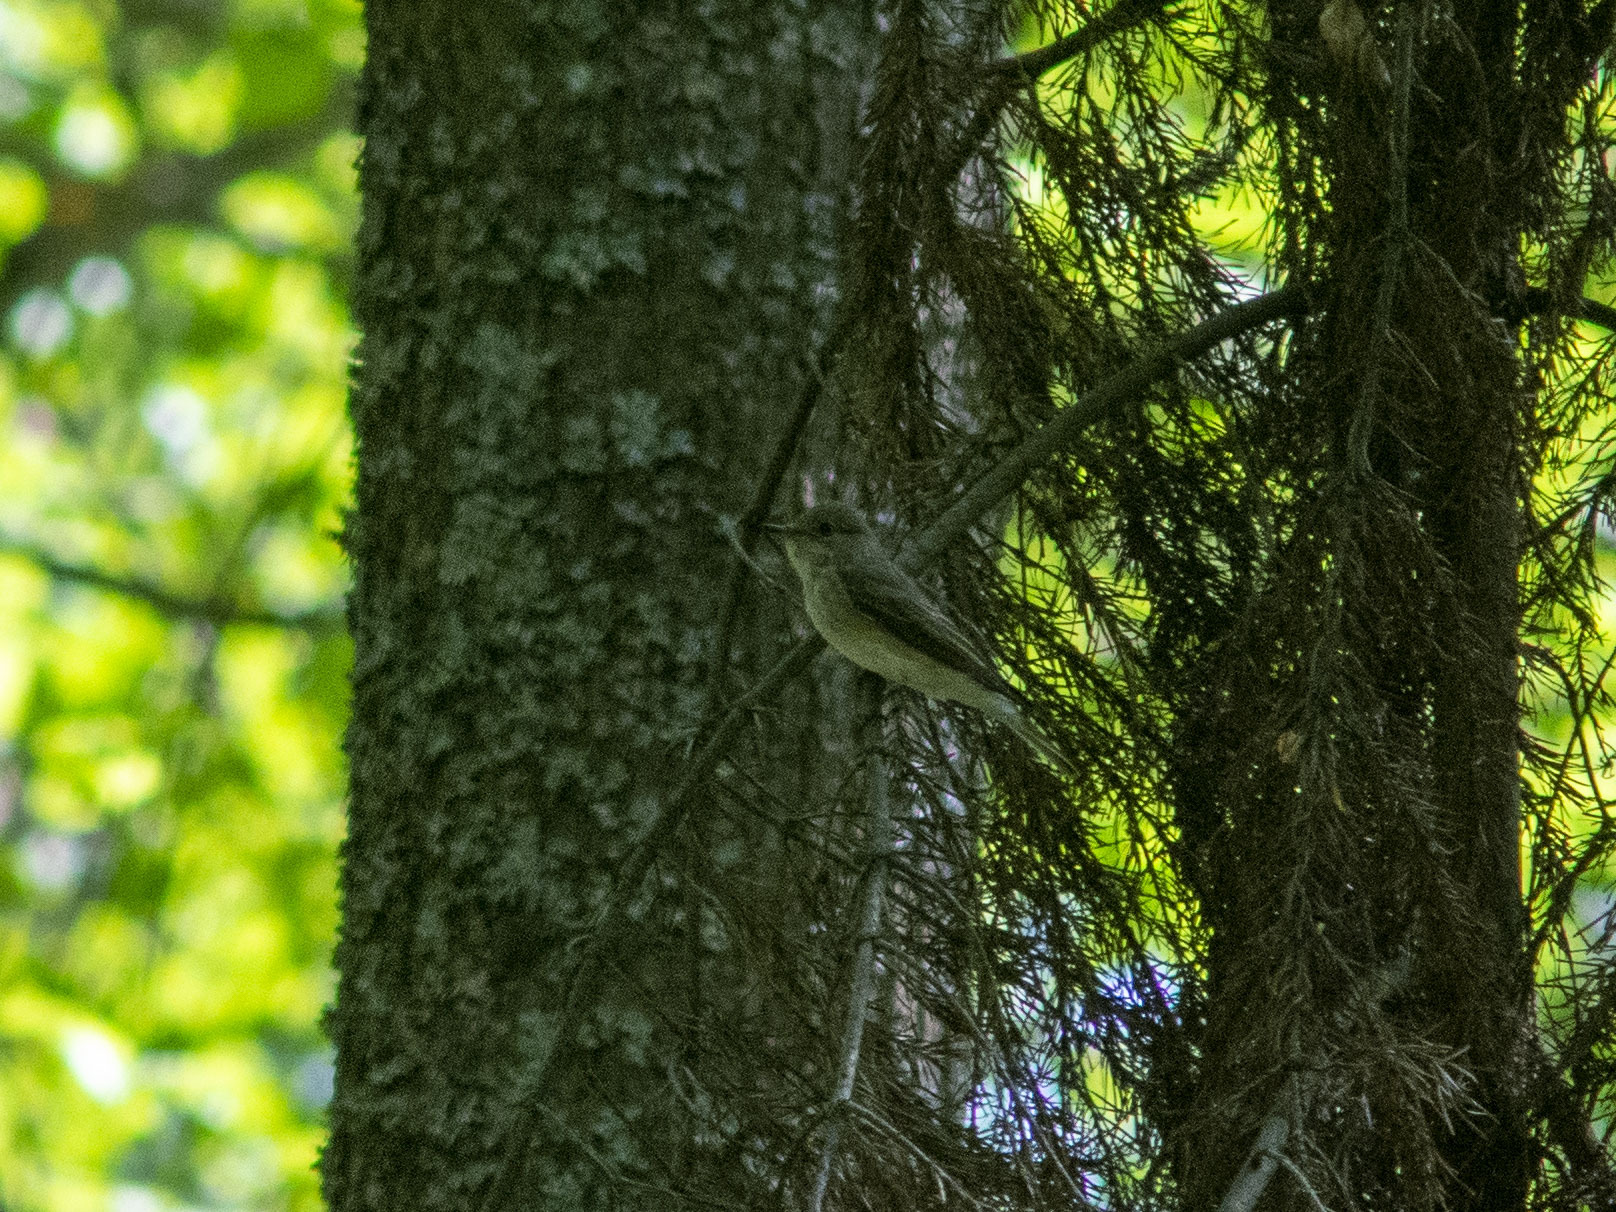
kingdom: Animalia
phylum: Chordata
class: Aves
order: Passeriformes
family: Muscicapidae
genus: Muscicapa
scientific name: Muscicapa striata
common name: Spotted flycatcher
